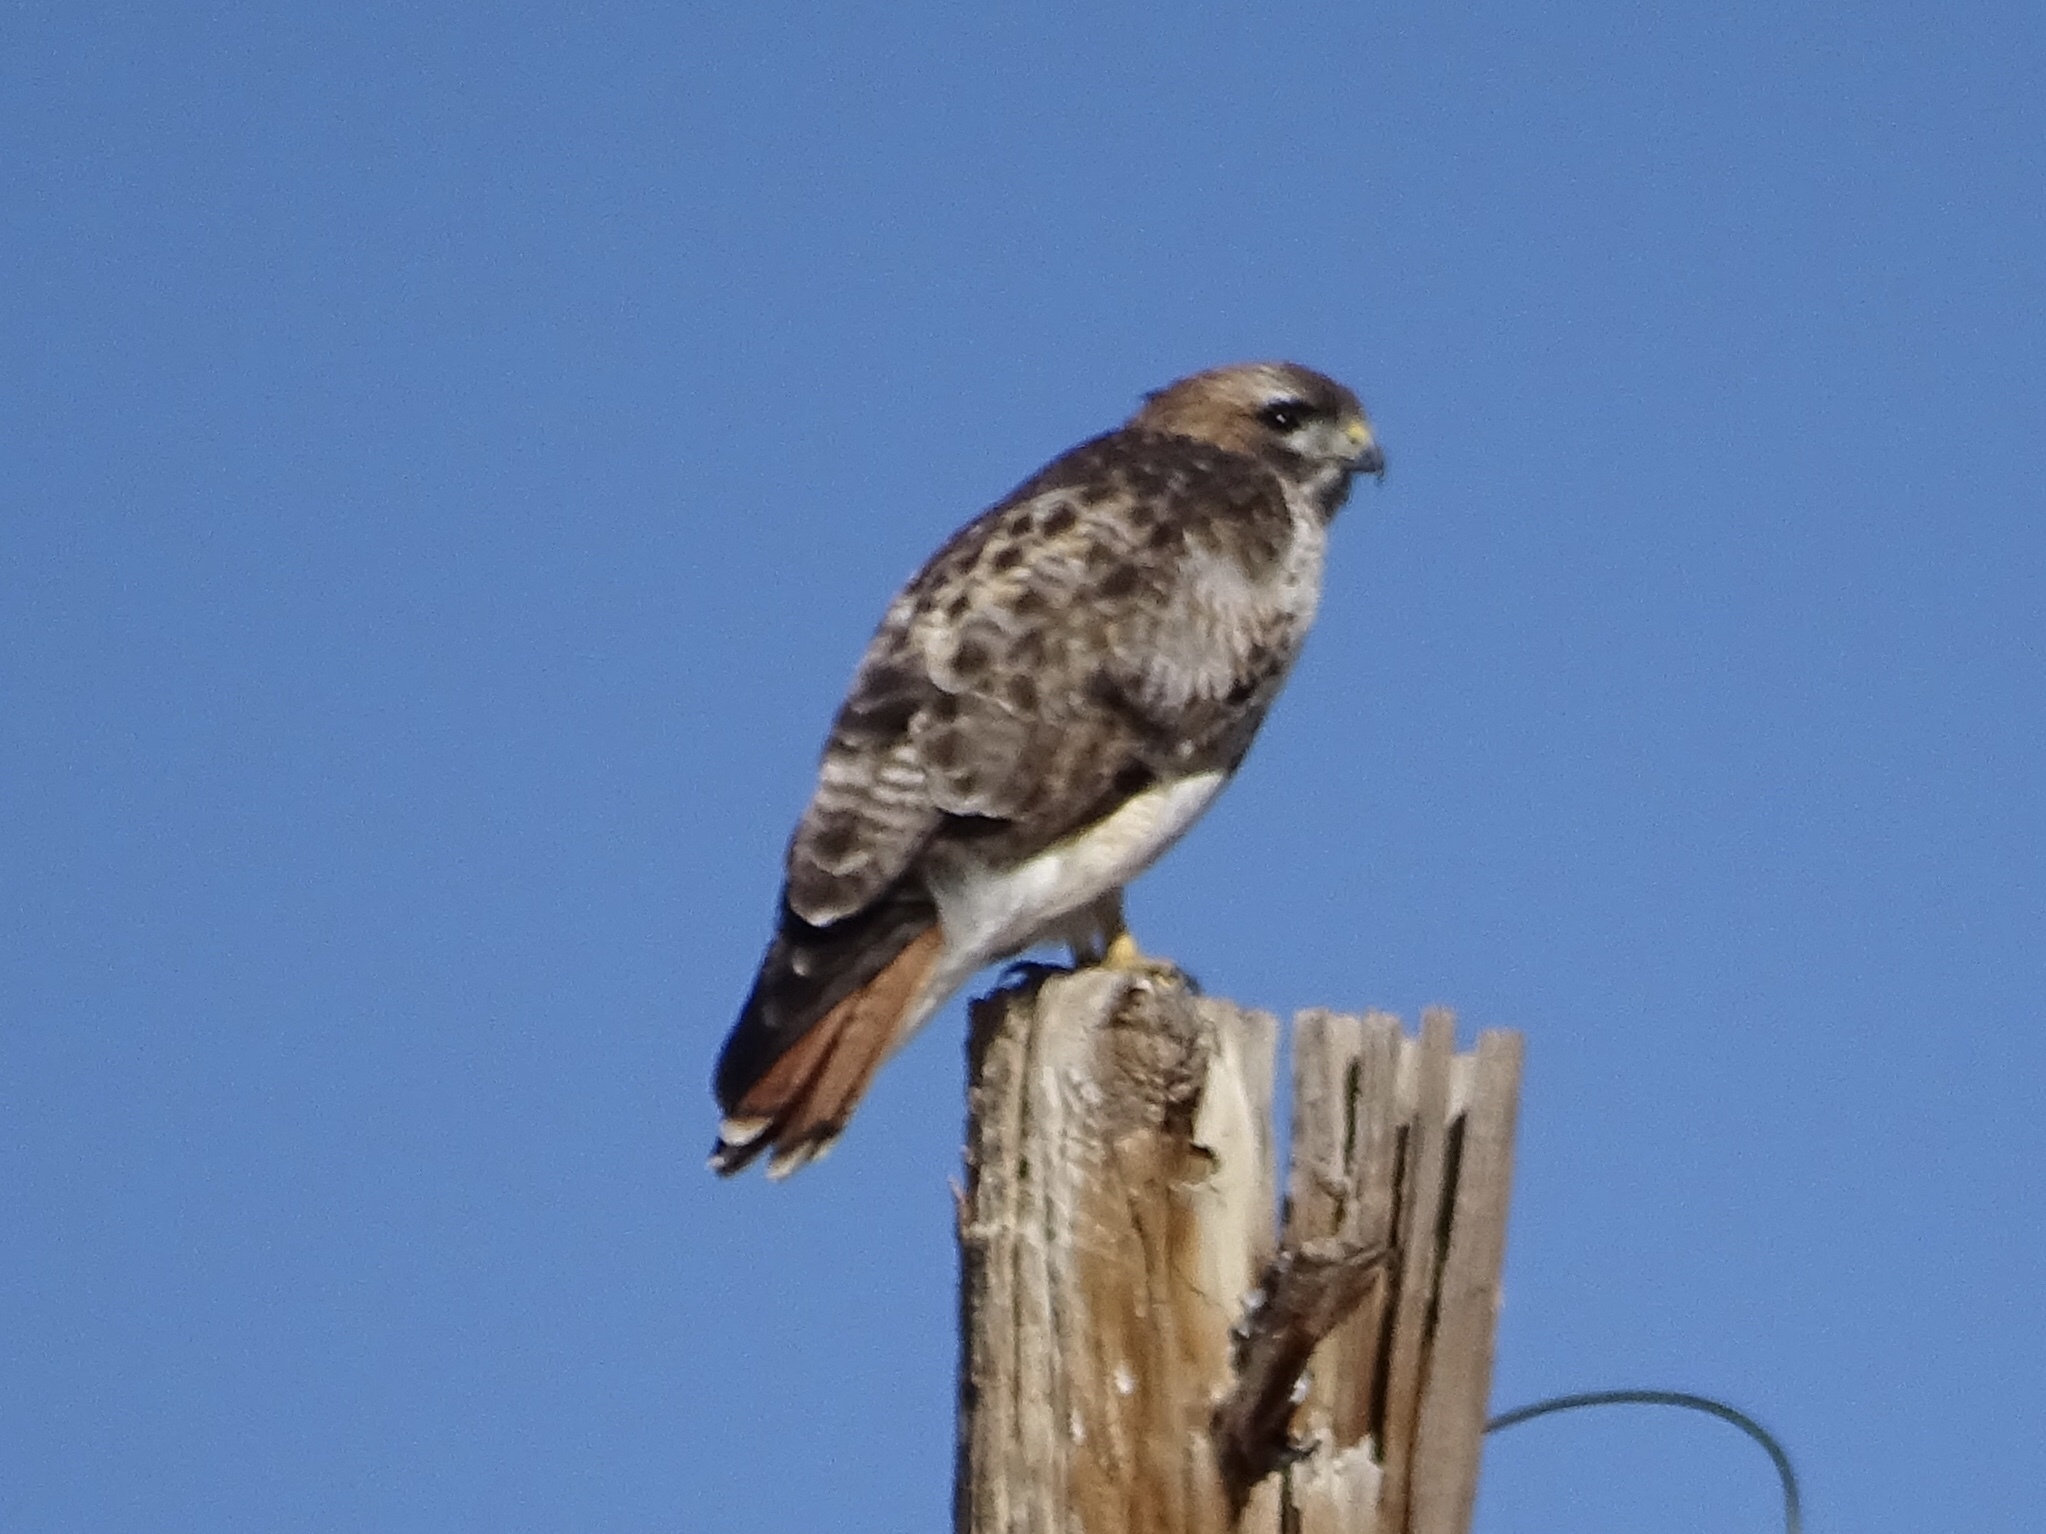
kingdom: Animalia
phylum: Chordata
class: Aves
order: Accipitriformes
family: Accipitridae
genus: Buteo
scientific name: Buteo jamaicensis
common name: Red-tailed hawk
